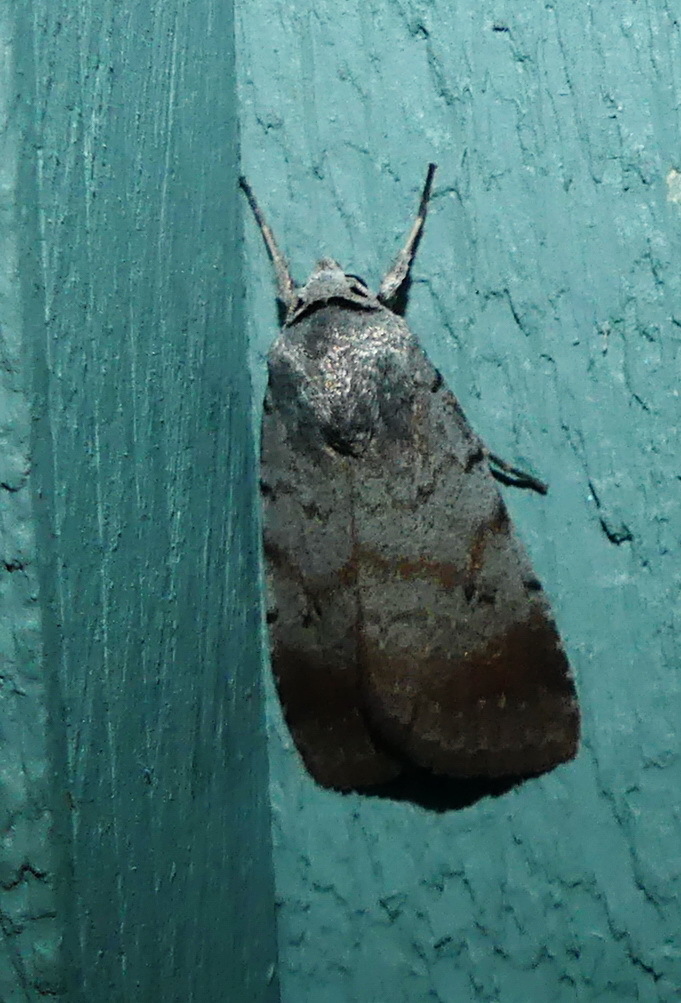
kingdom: Animalia
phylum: Arthropoda
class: Insecta
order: Lepidoptera
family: Noctuidae
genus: Anicla
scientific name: Anicla illapsa
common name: Snowy dart
